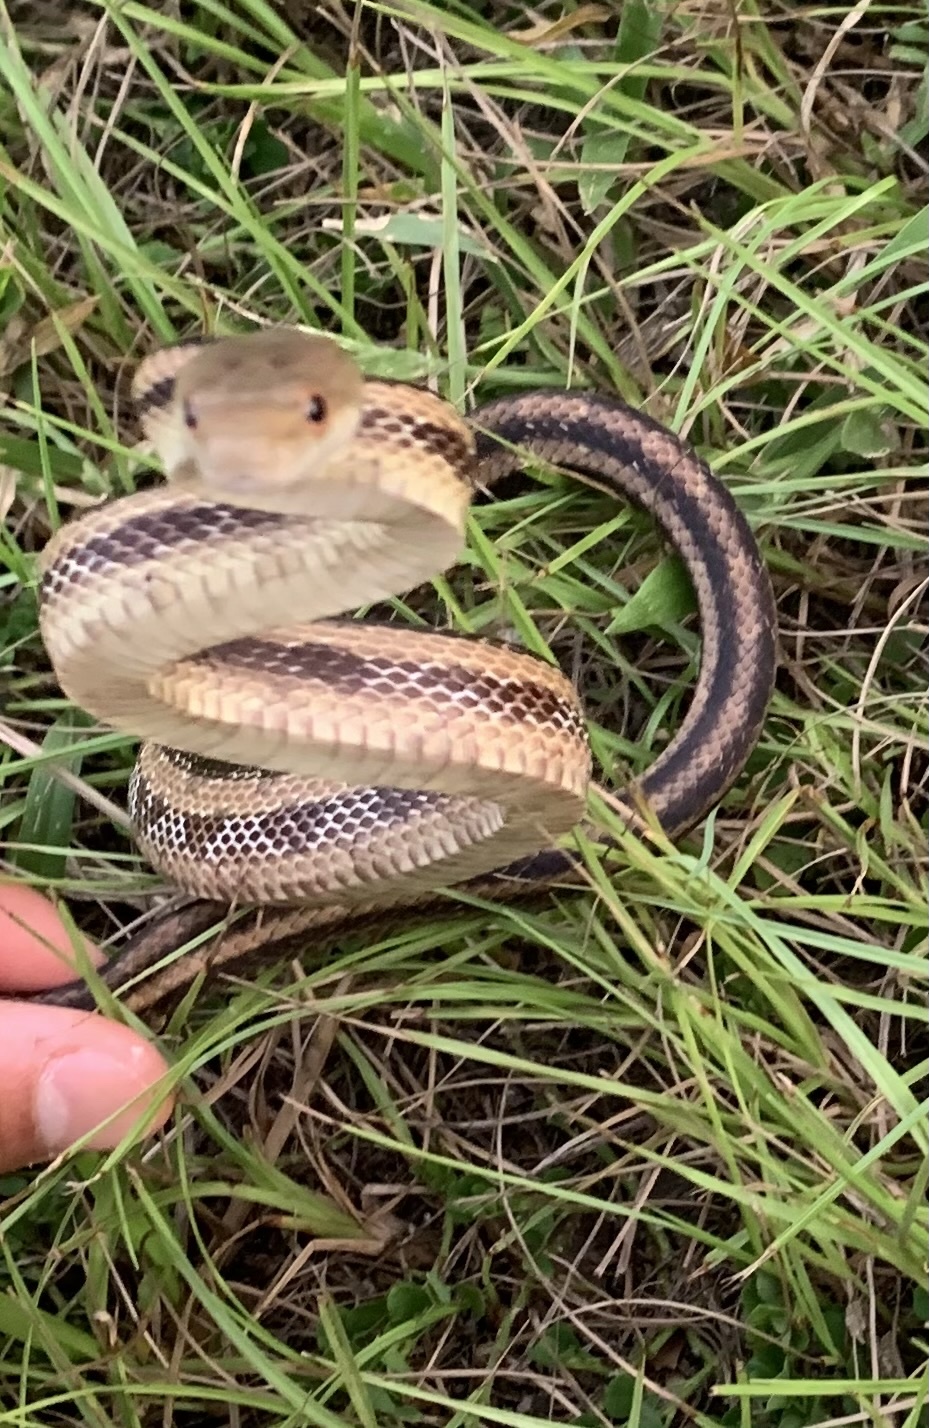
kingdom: Animalia
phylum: Chordata
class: Squamata
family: Colubridae
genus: Pantherophis
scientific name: Pantherophis alleghaniensis
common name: Eastern rat snake
